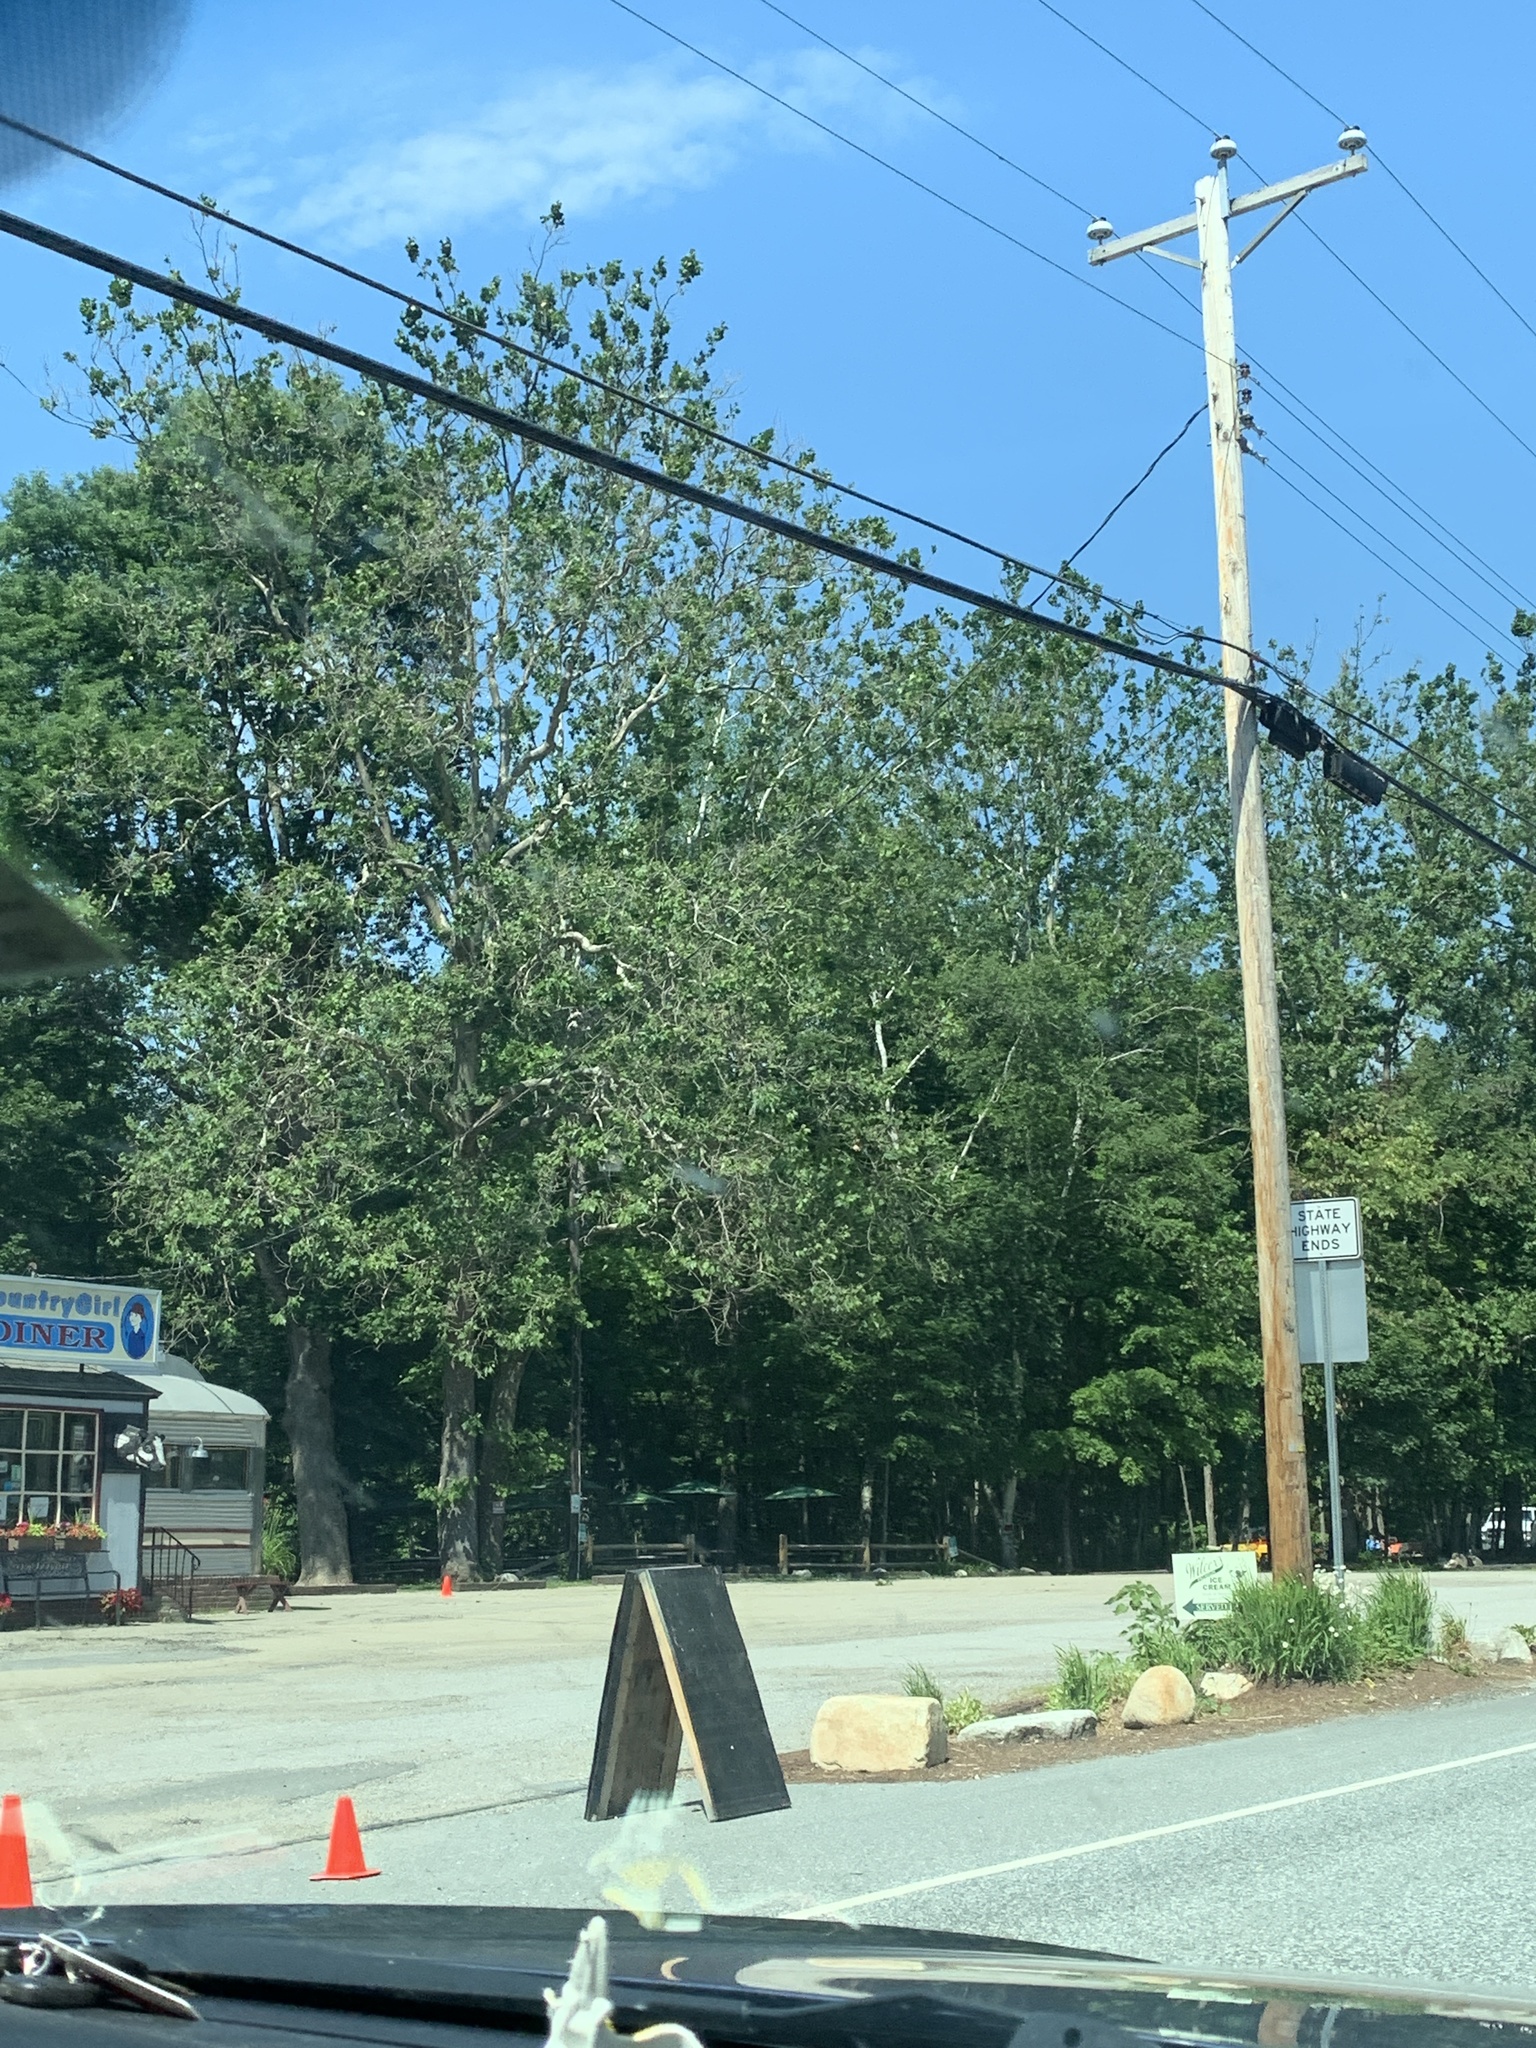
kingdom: Plantae
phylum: Tracheophyta
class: Magnoliopsida
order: Proteales
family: Platanaceae
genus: Platanus
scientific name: Platanus occidentalis
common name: American sycamore
